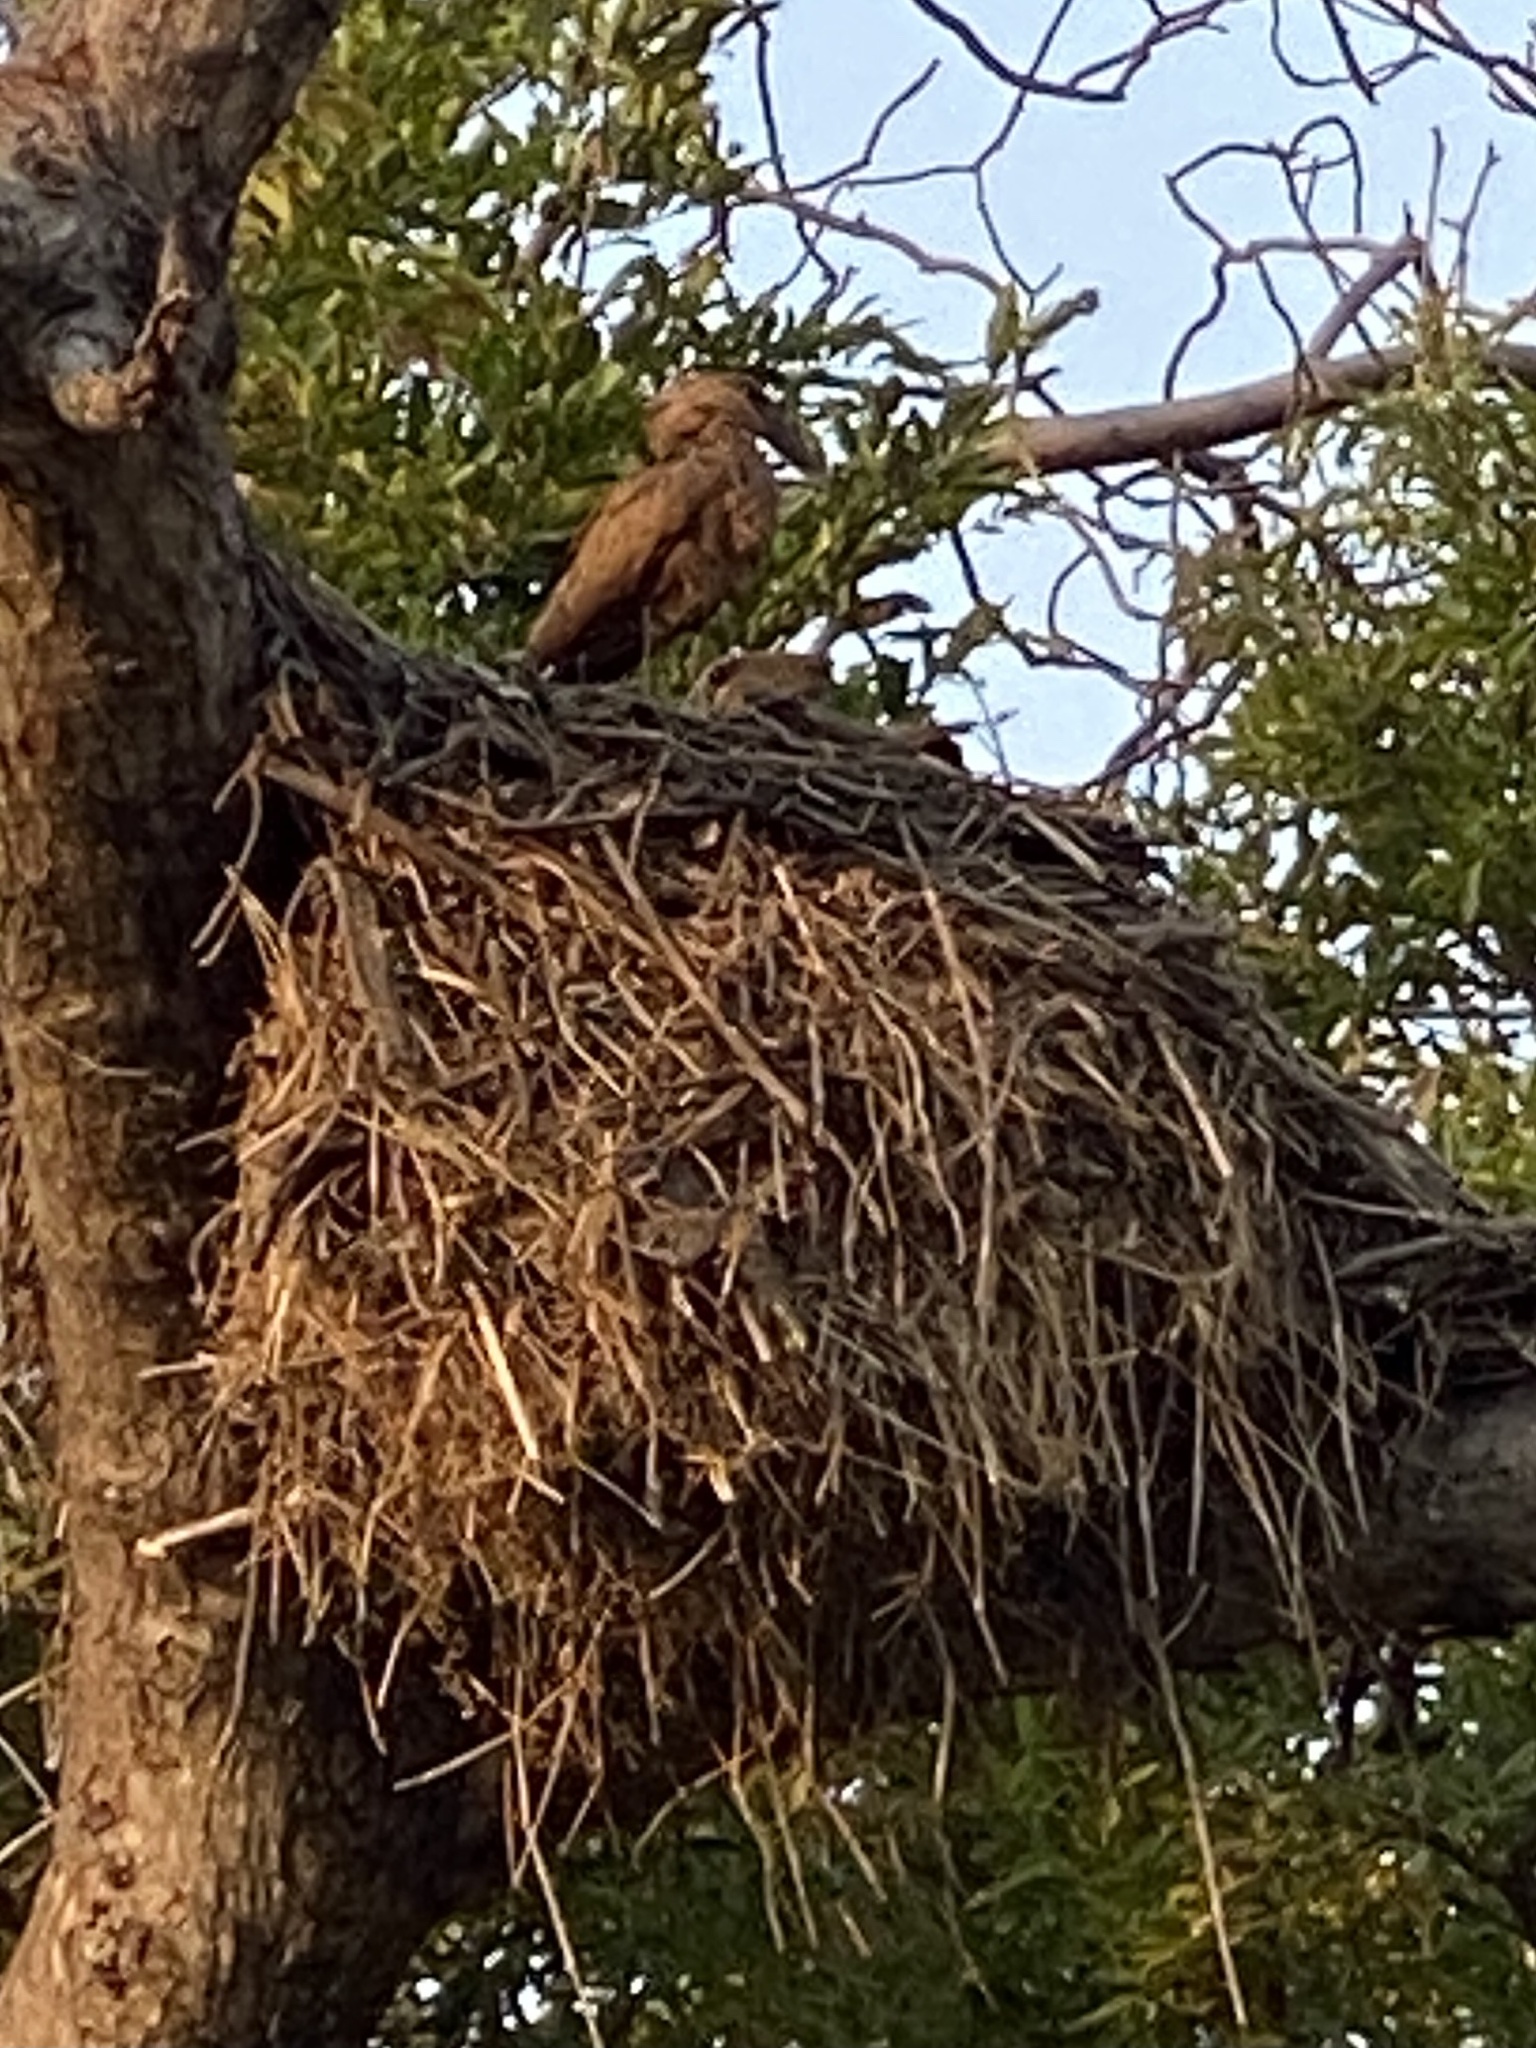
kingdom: Animalia
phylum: Chordata
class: Aves
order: Pelecaniformes
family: Scopidae
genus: Scopus
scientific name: Scopus umbretta
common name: Hamerkop
